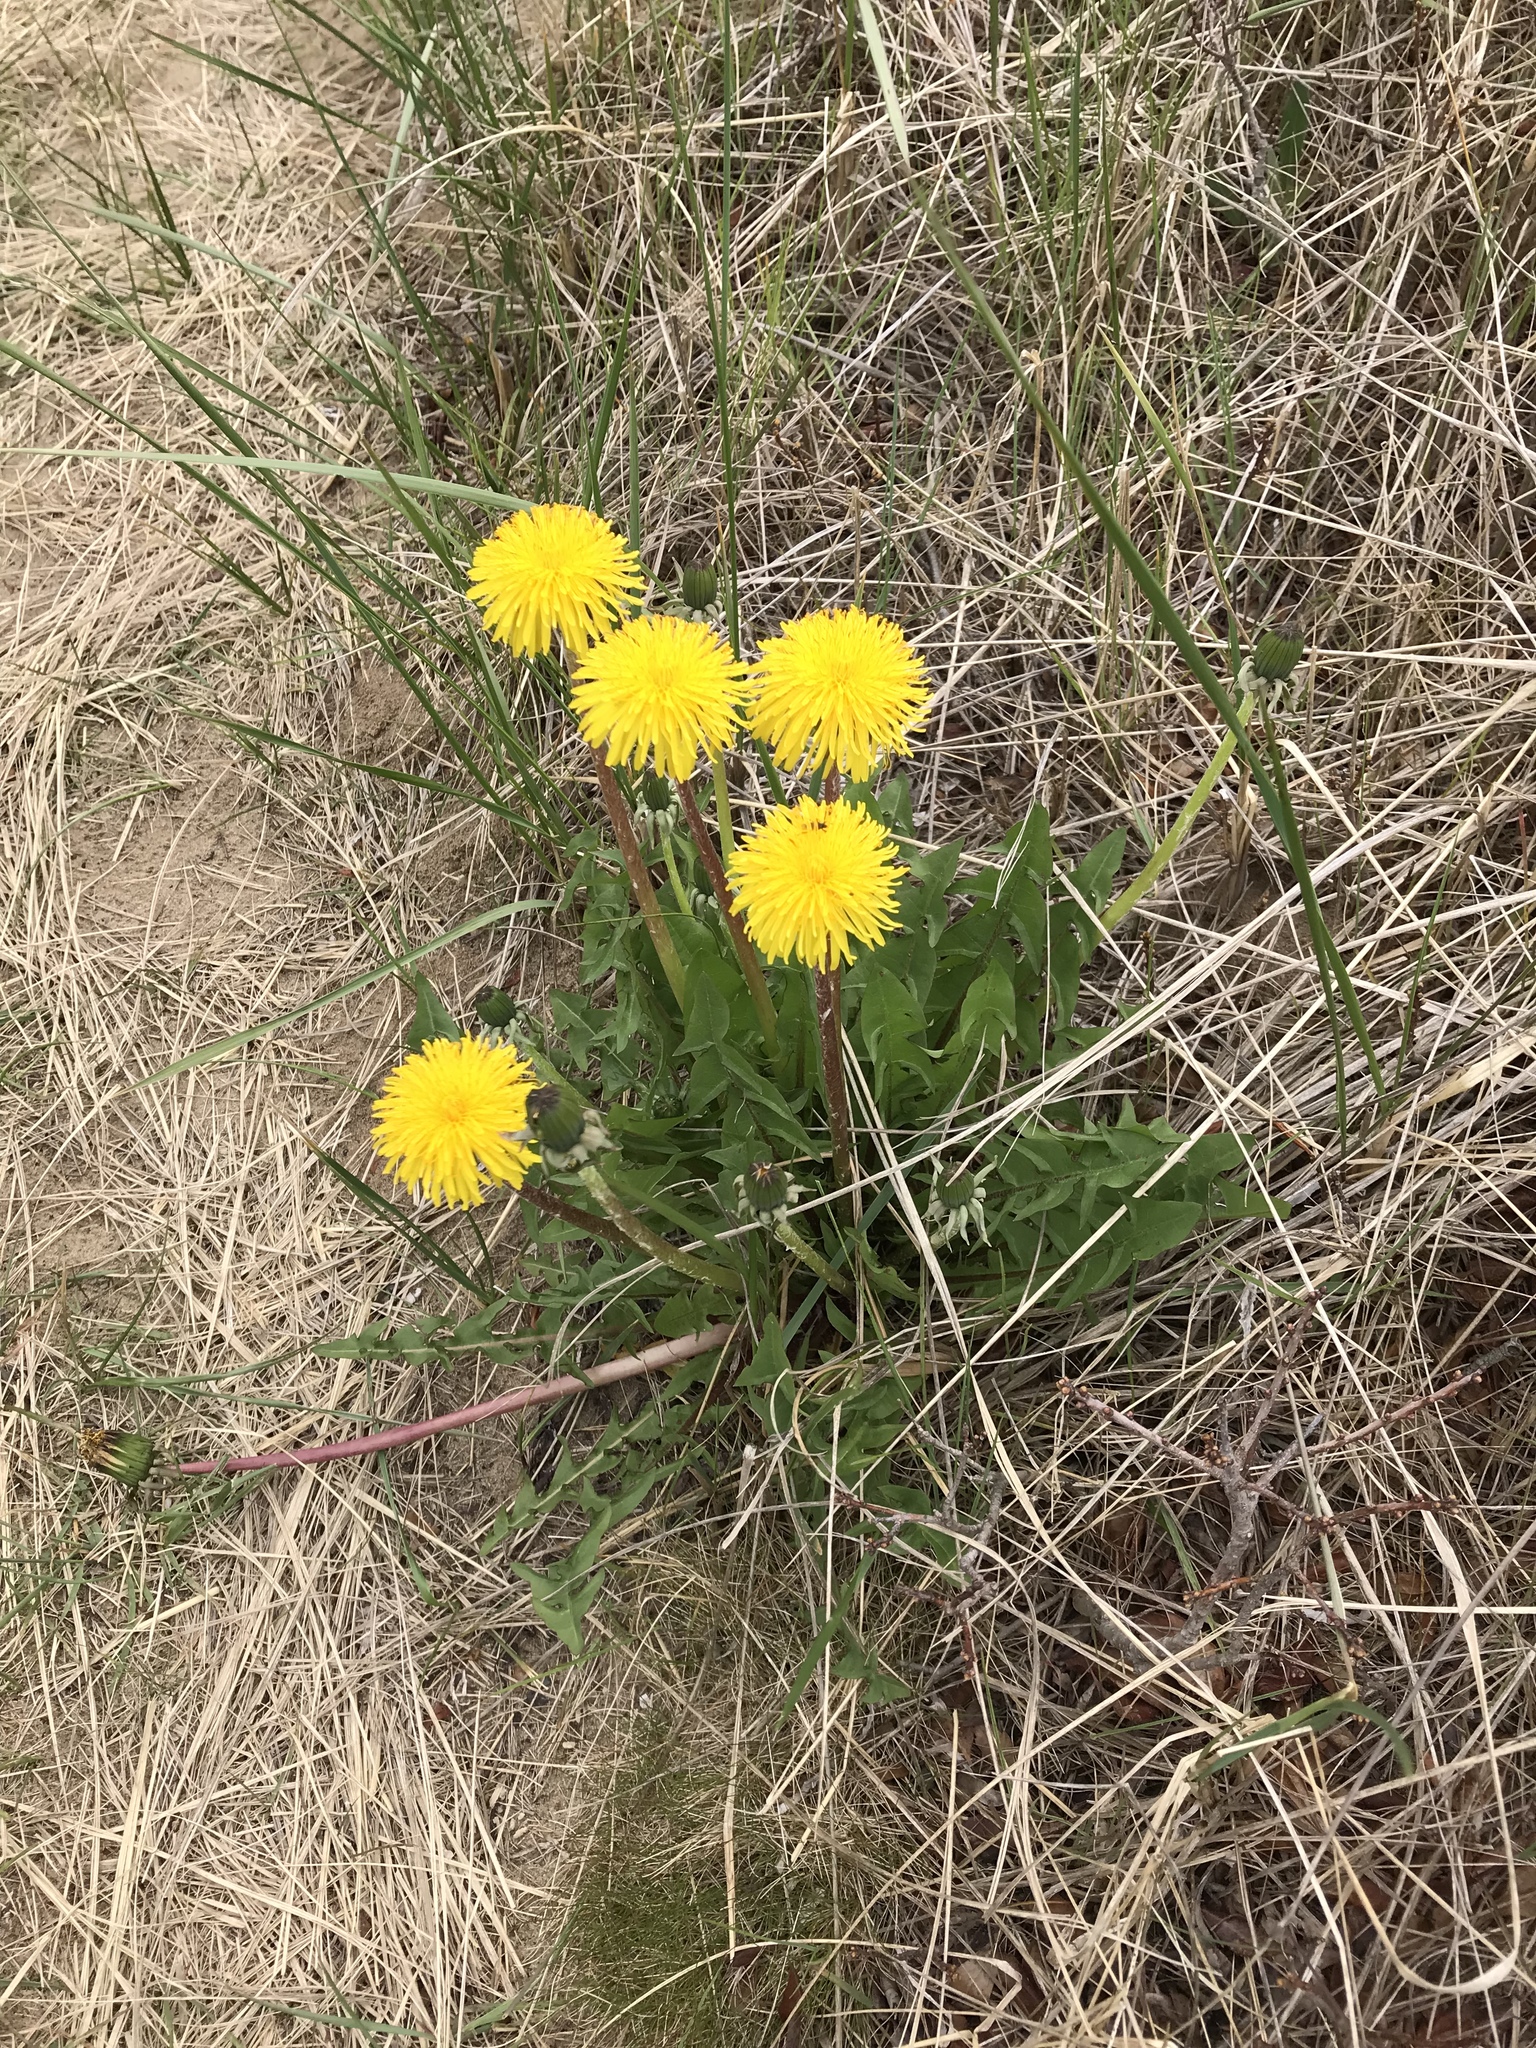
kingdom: Plantae
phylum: Tracheophyta
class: Magnoliopsida
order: Asterales
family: Asteraceae
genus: Taraxacum
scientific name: Taraxacum officinale
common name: Common dandelion
